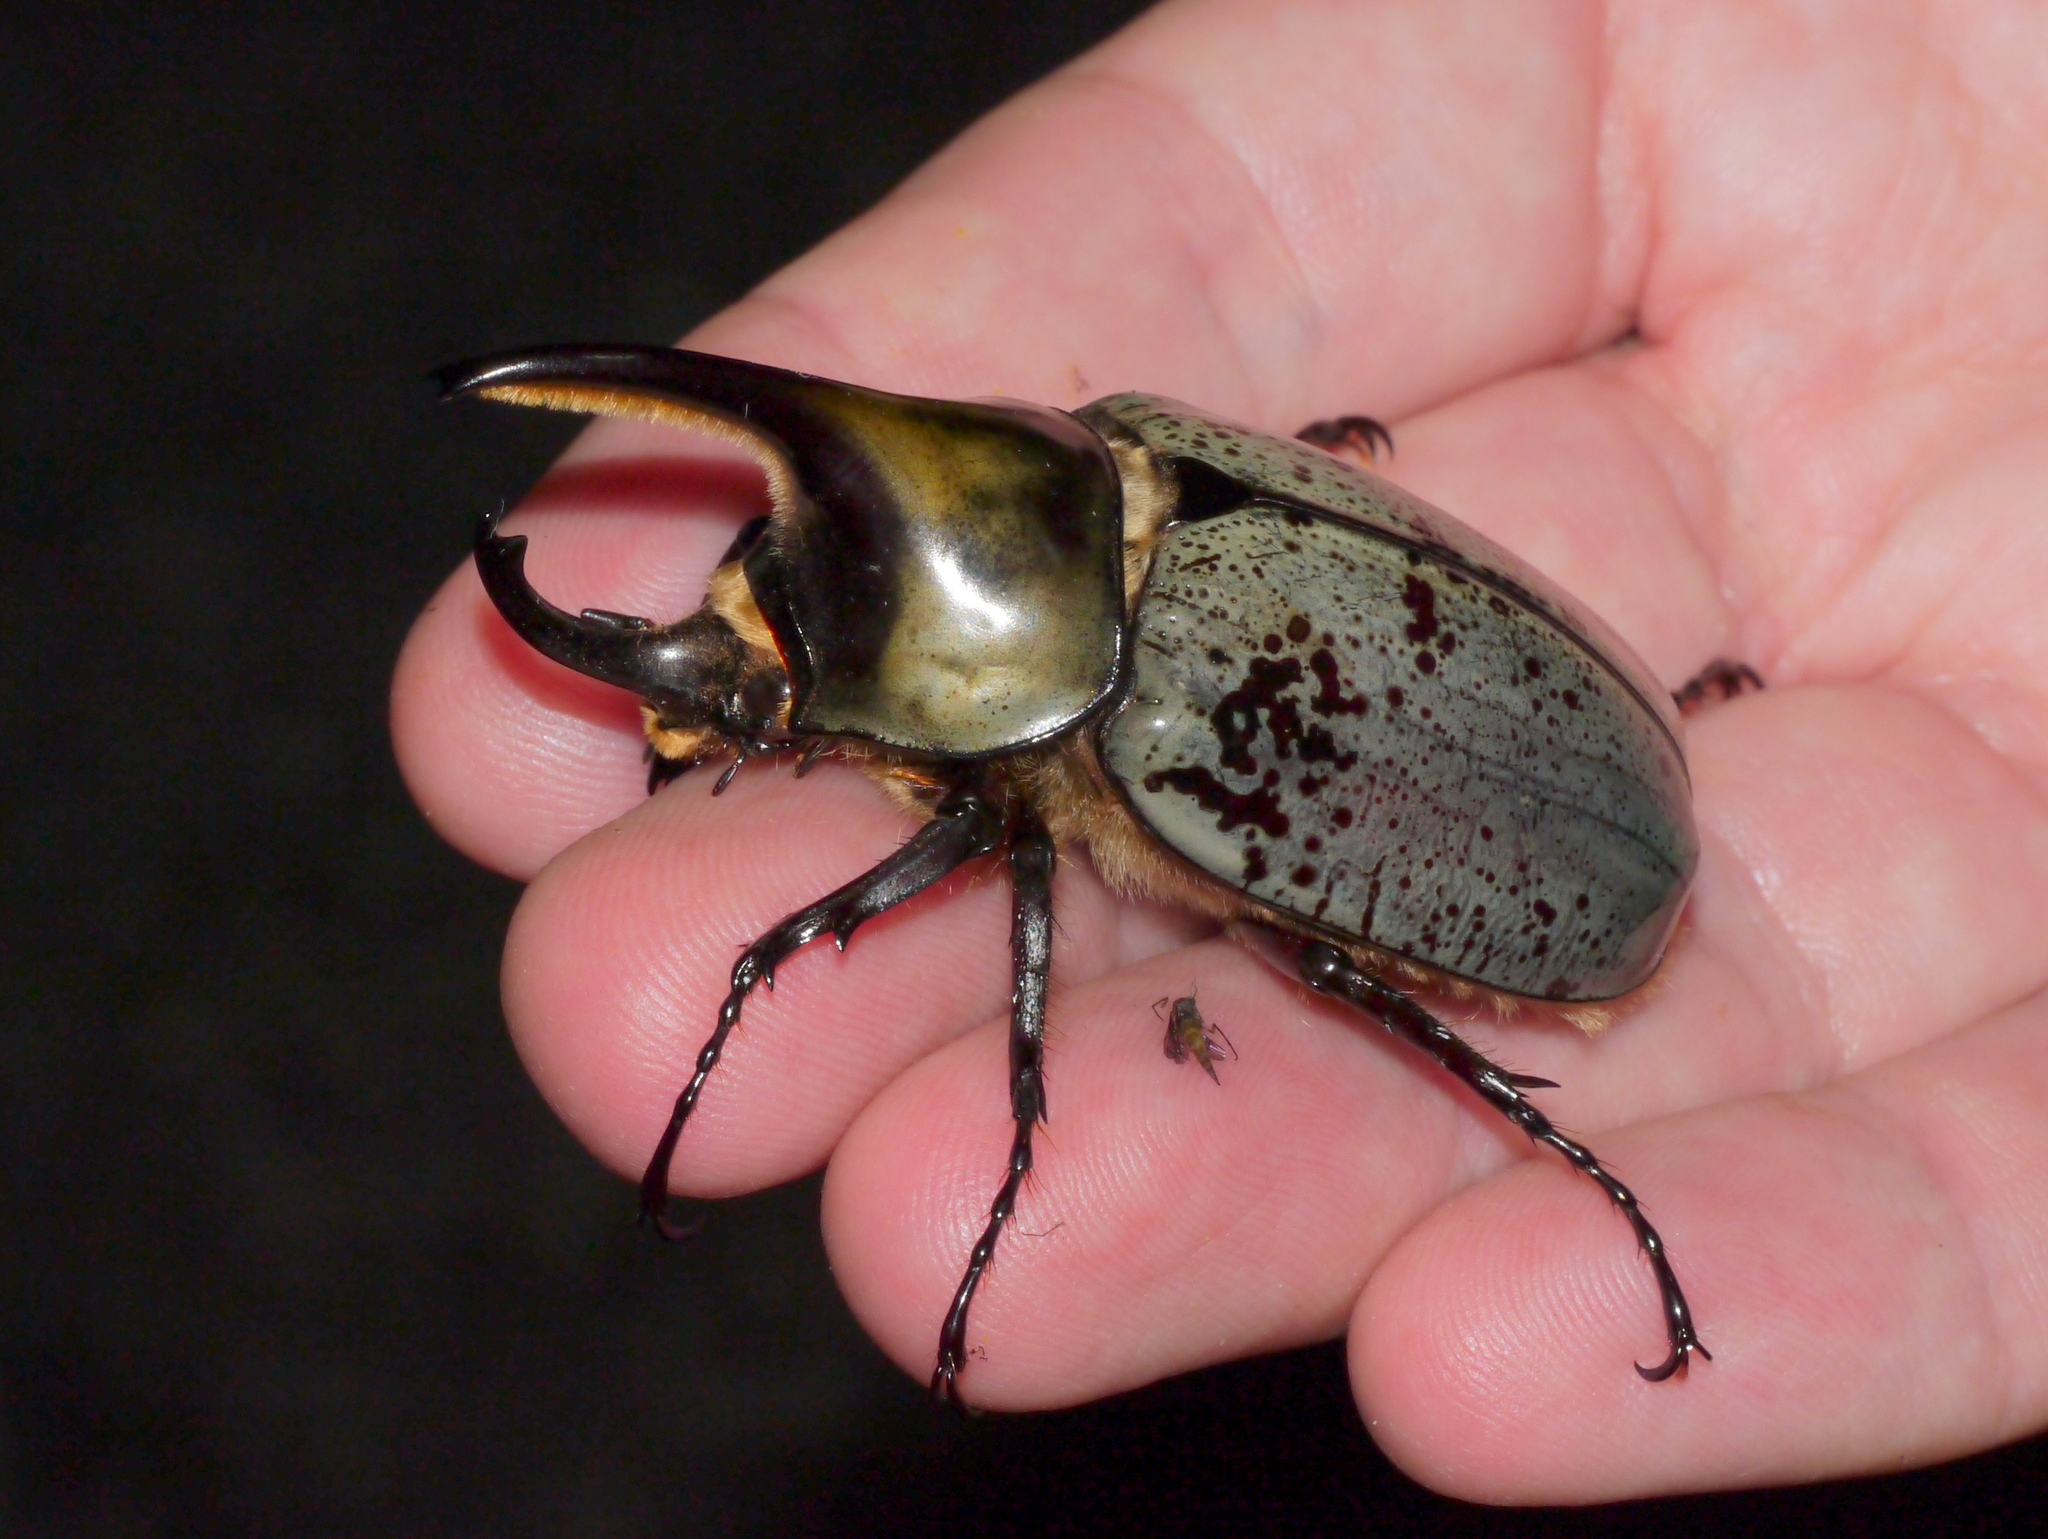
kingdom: Animalia
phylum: Arthropoda
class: Insecta
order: Coleoptera
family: Scarabaeidae
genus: Dynastes
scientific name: Dynastes grantii
